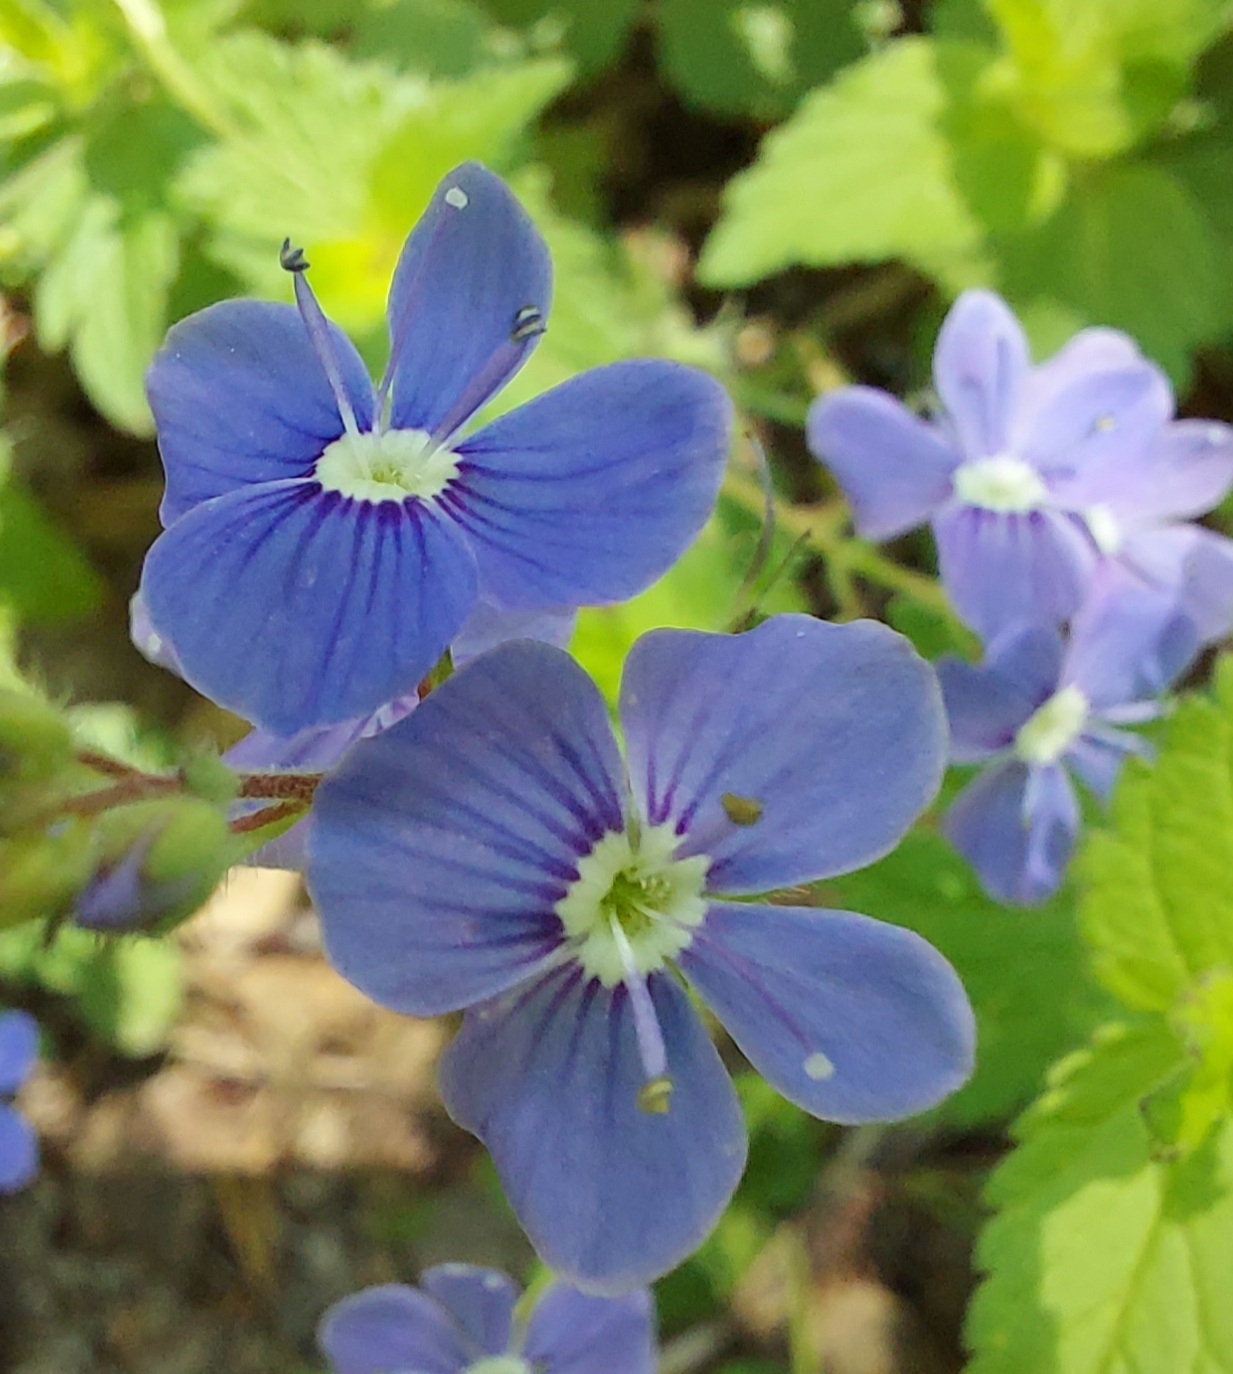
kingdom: Plantae
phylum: Tracheophyta
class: Magnoliopsida
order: Lamiales
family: Plantaginaceae
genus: Veronica
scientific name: Veronica chamaedrys
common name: Germander speedwell
